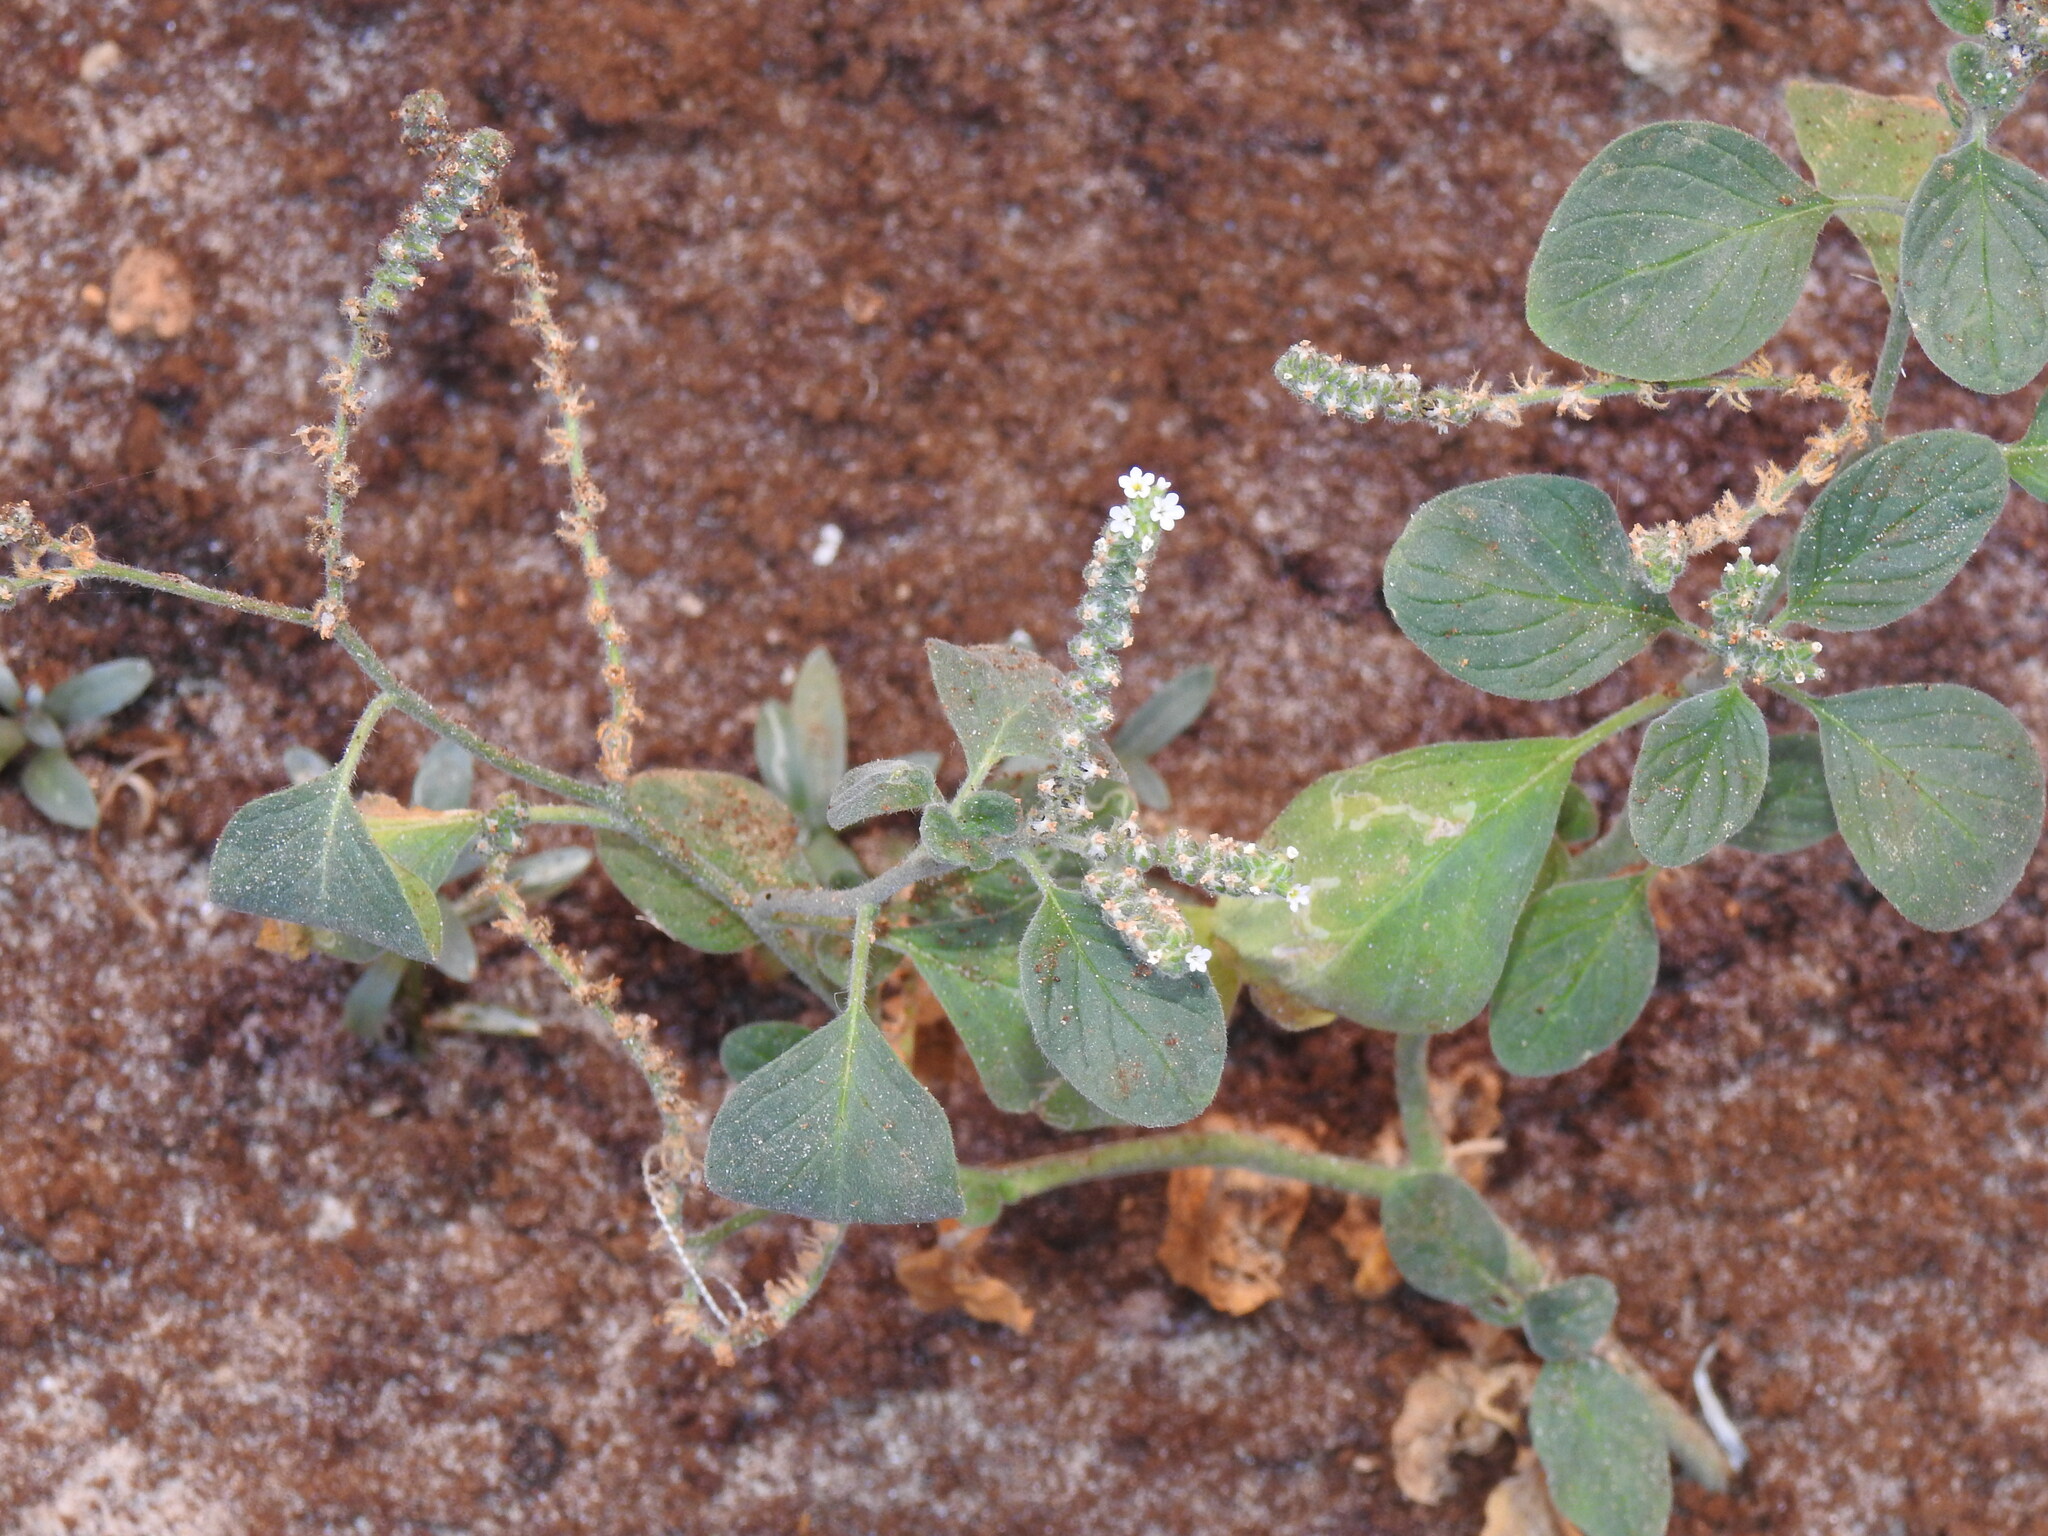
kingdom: Plantae
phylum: Tracheophyta
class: Magnoliopsida
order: Boraginales
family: Heliotropiaceae
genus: Heliotropium
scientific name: Heliotropium europaeum
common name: European heliotrope
